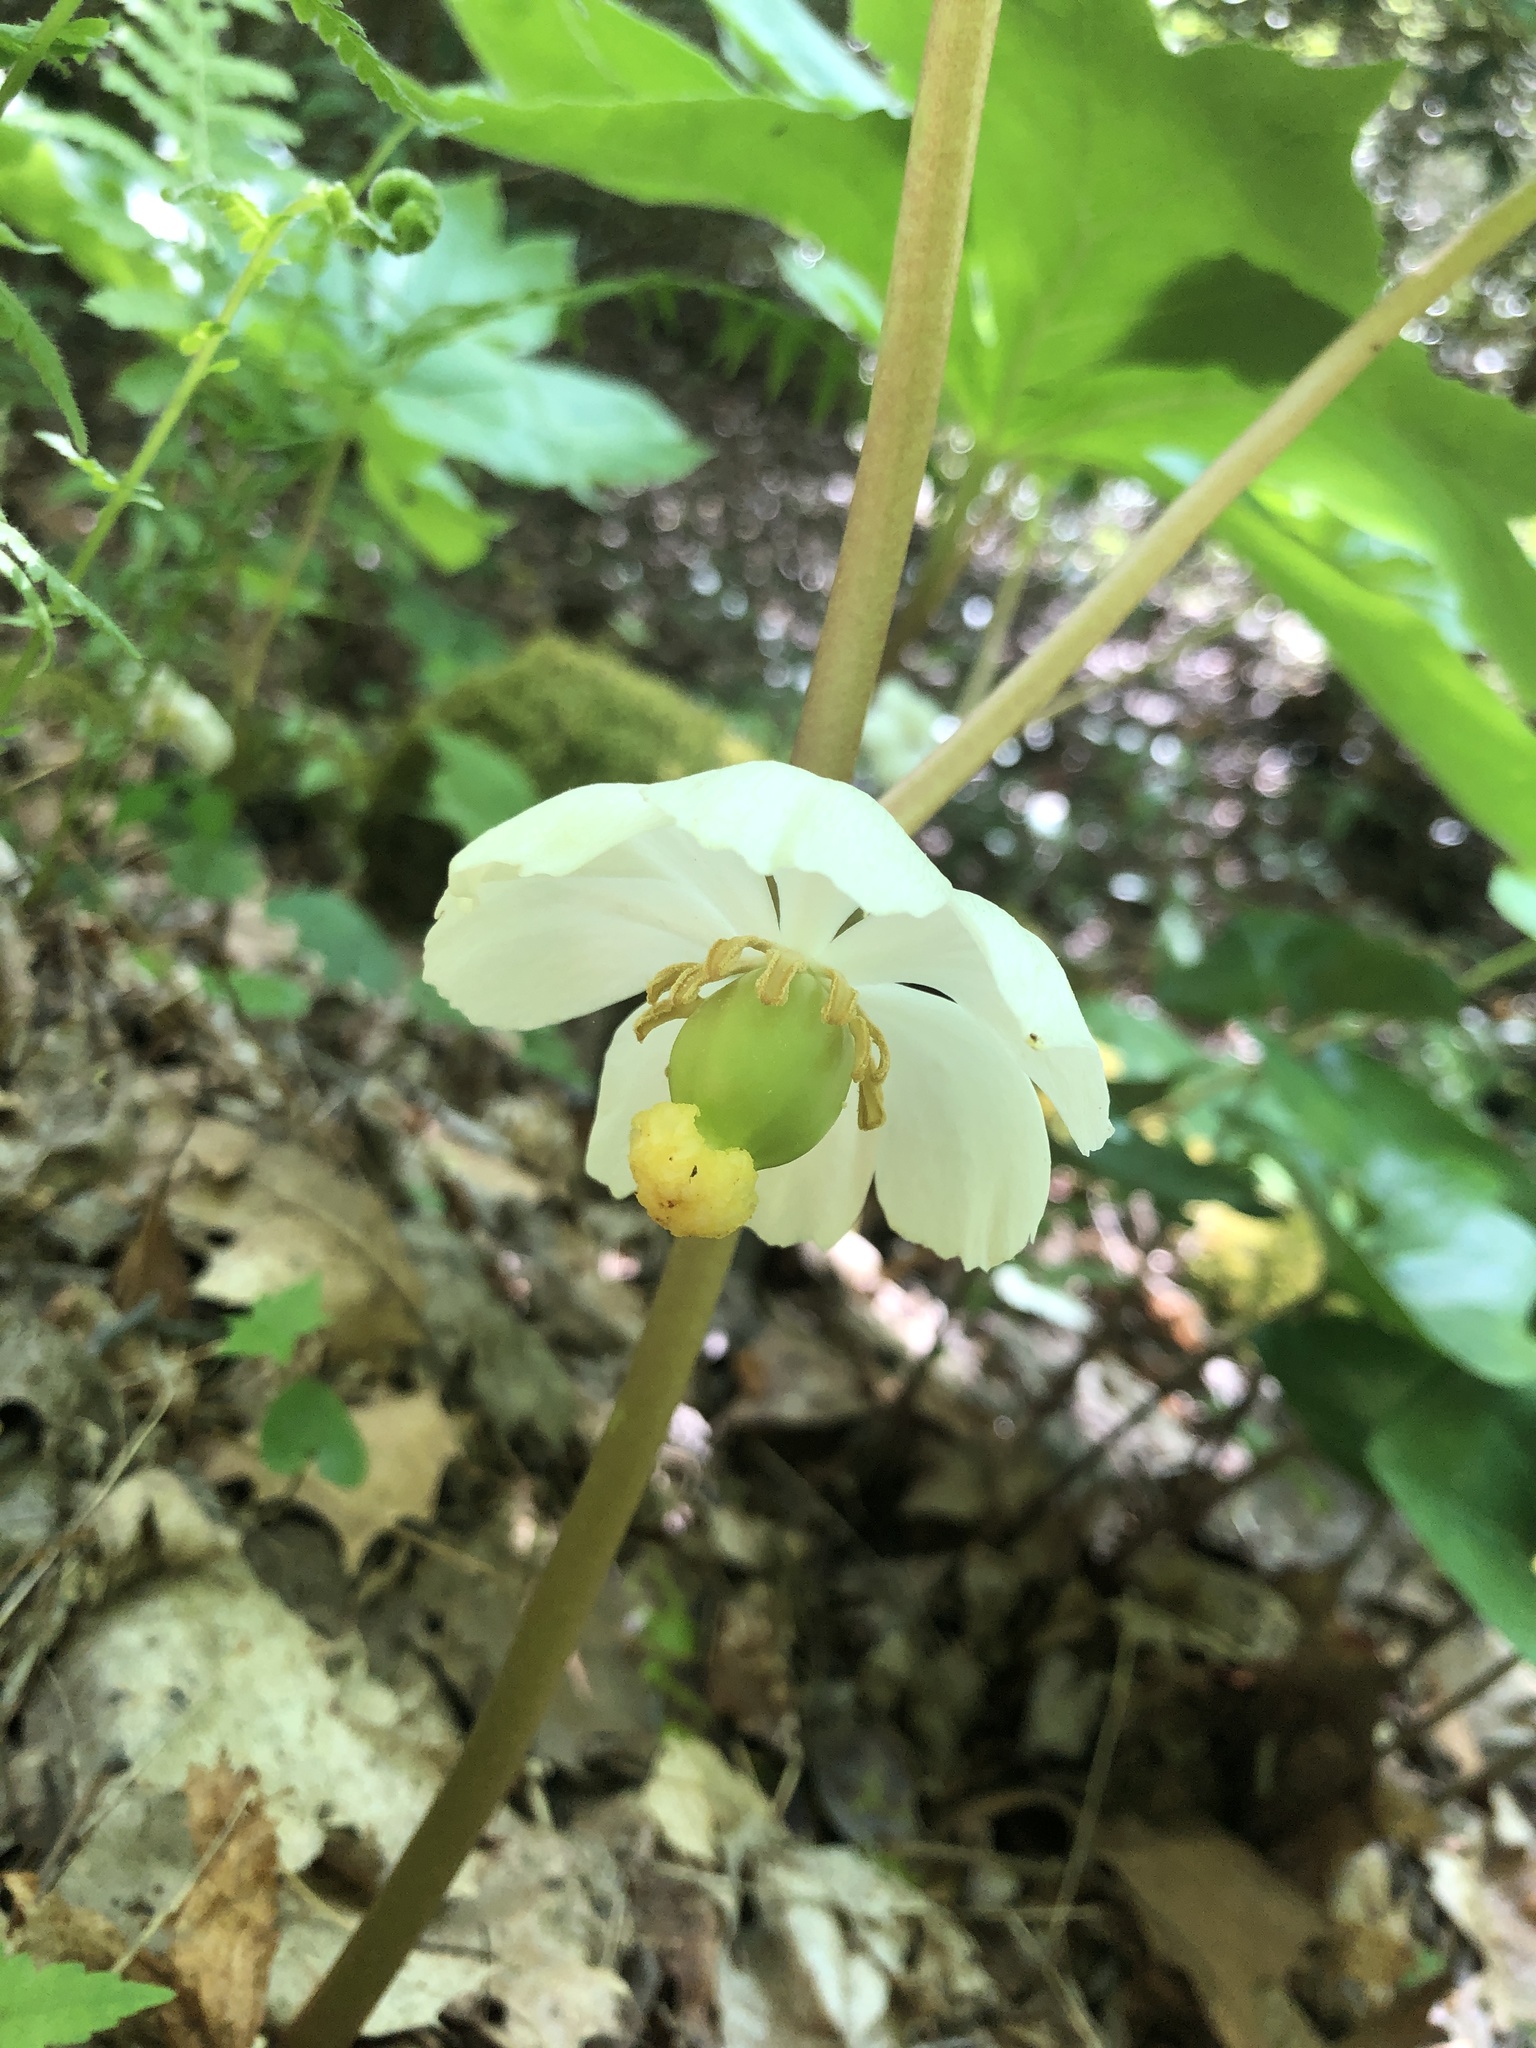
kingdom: Plantae
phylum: Tracheophyta
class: Magnoliopsida
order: Ranunculales
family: Berberidaceae
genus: Podophyllum
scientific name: Podophyllum peltatum
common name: Wild mandrake
